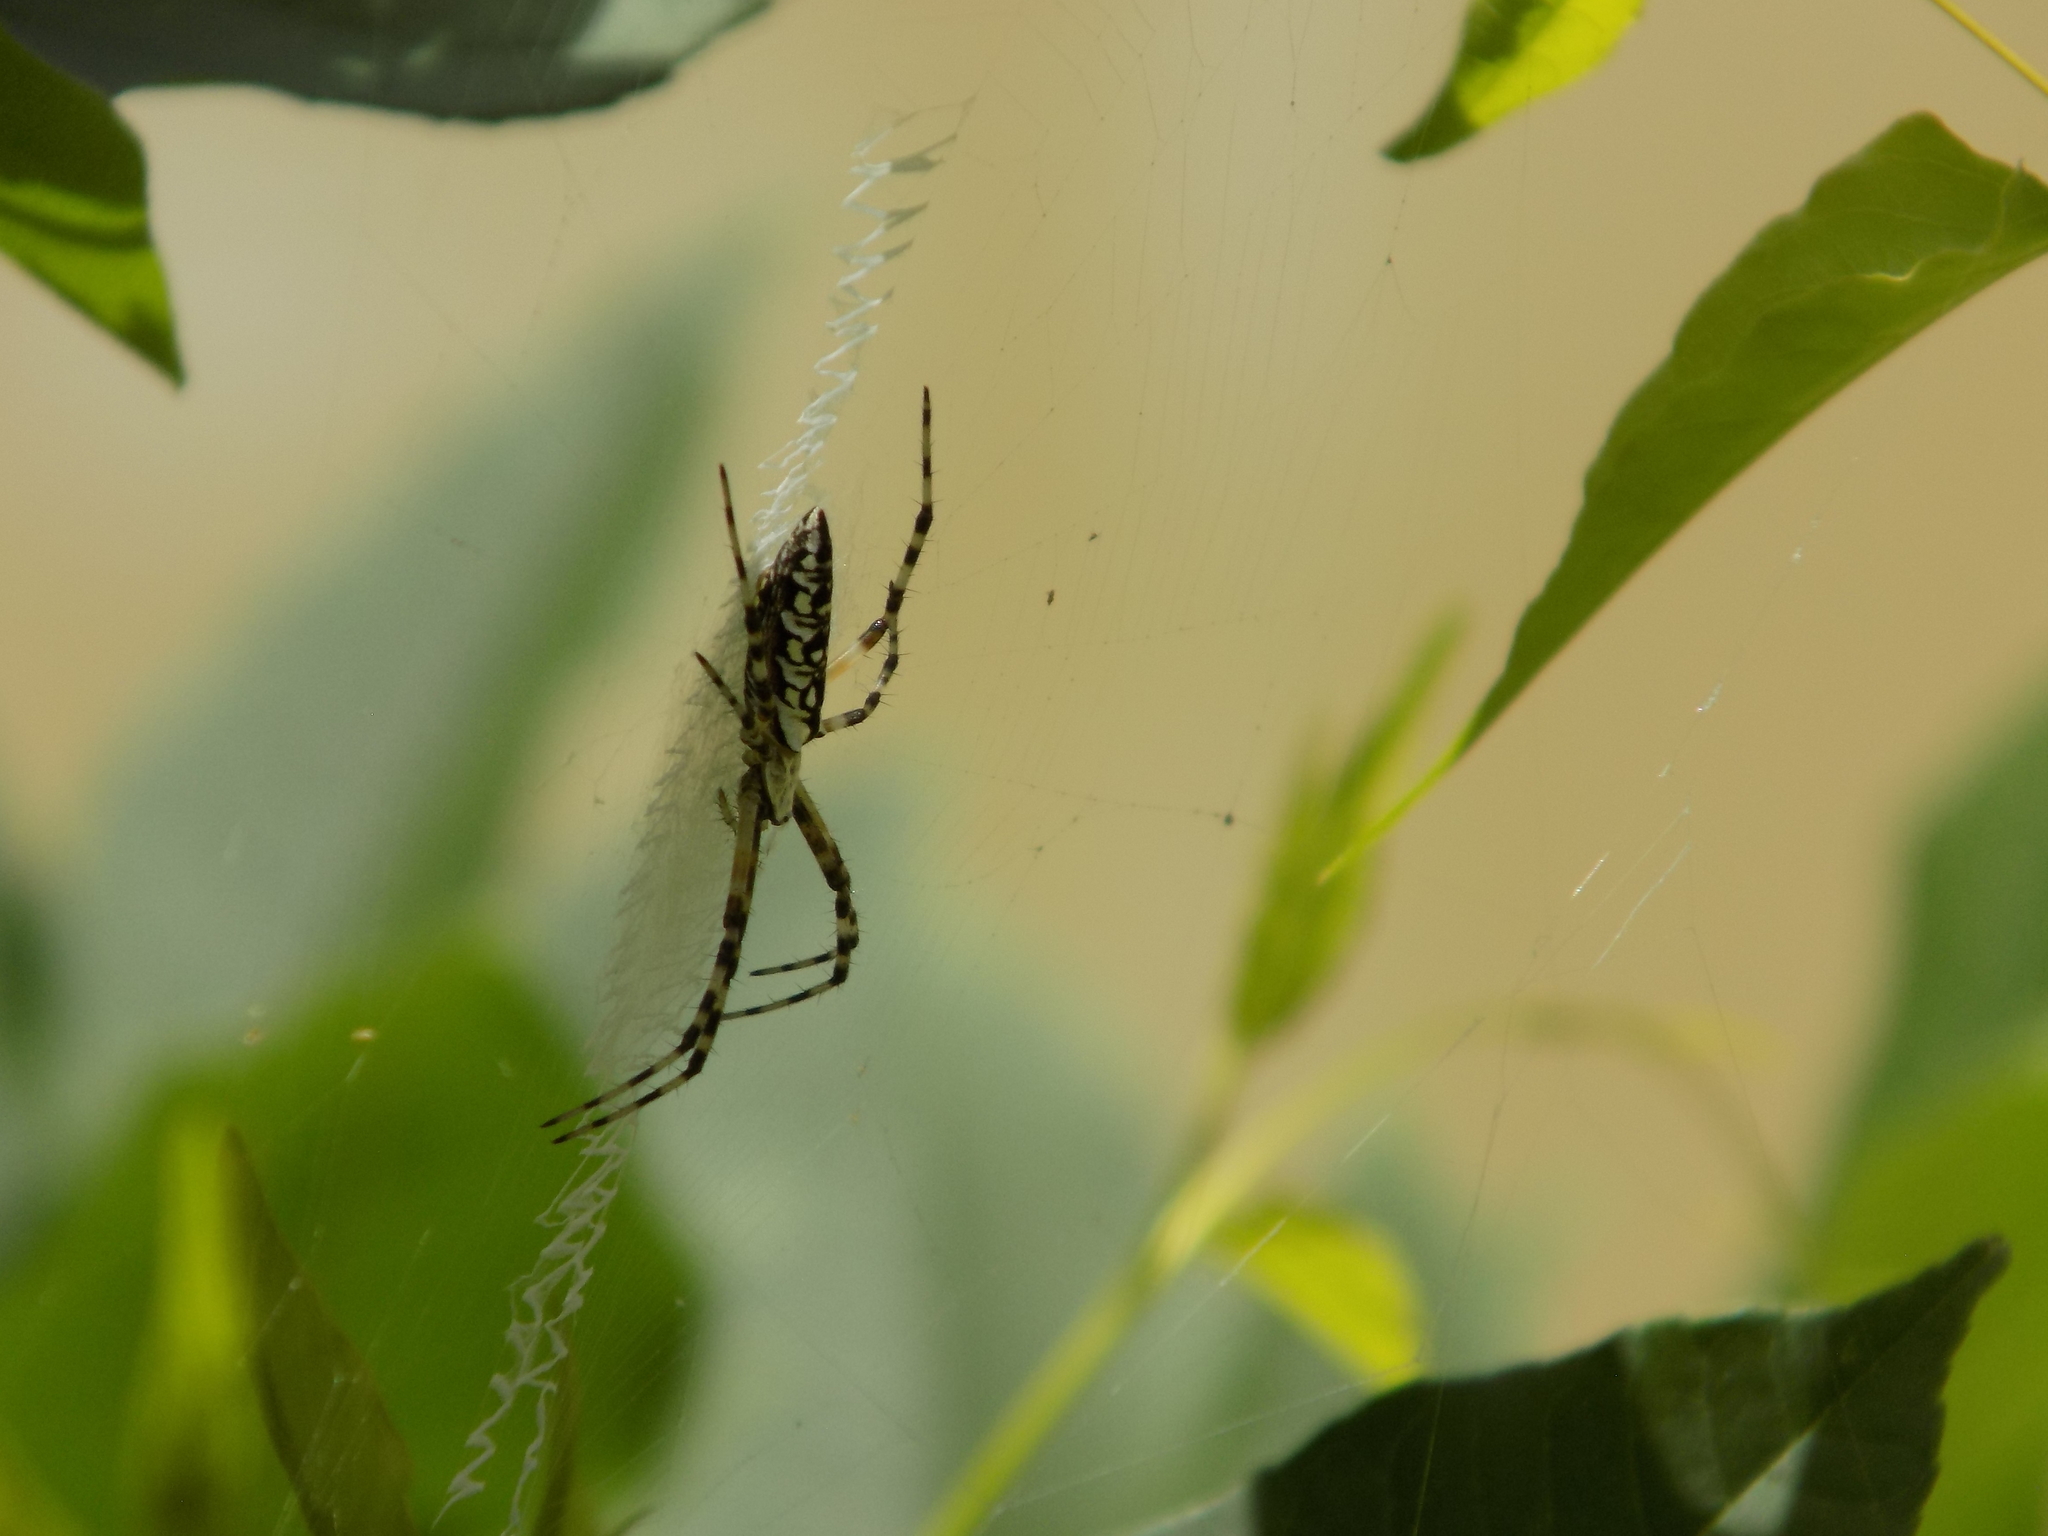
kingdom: Animalia
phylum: Arthropoda
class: Arachnida
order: Araneae
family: Araneidae
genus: Argiope
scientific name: Argiope aurantia
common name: Orb weavers
